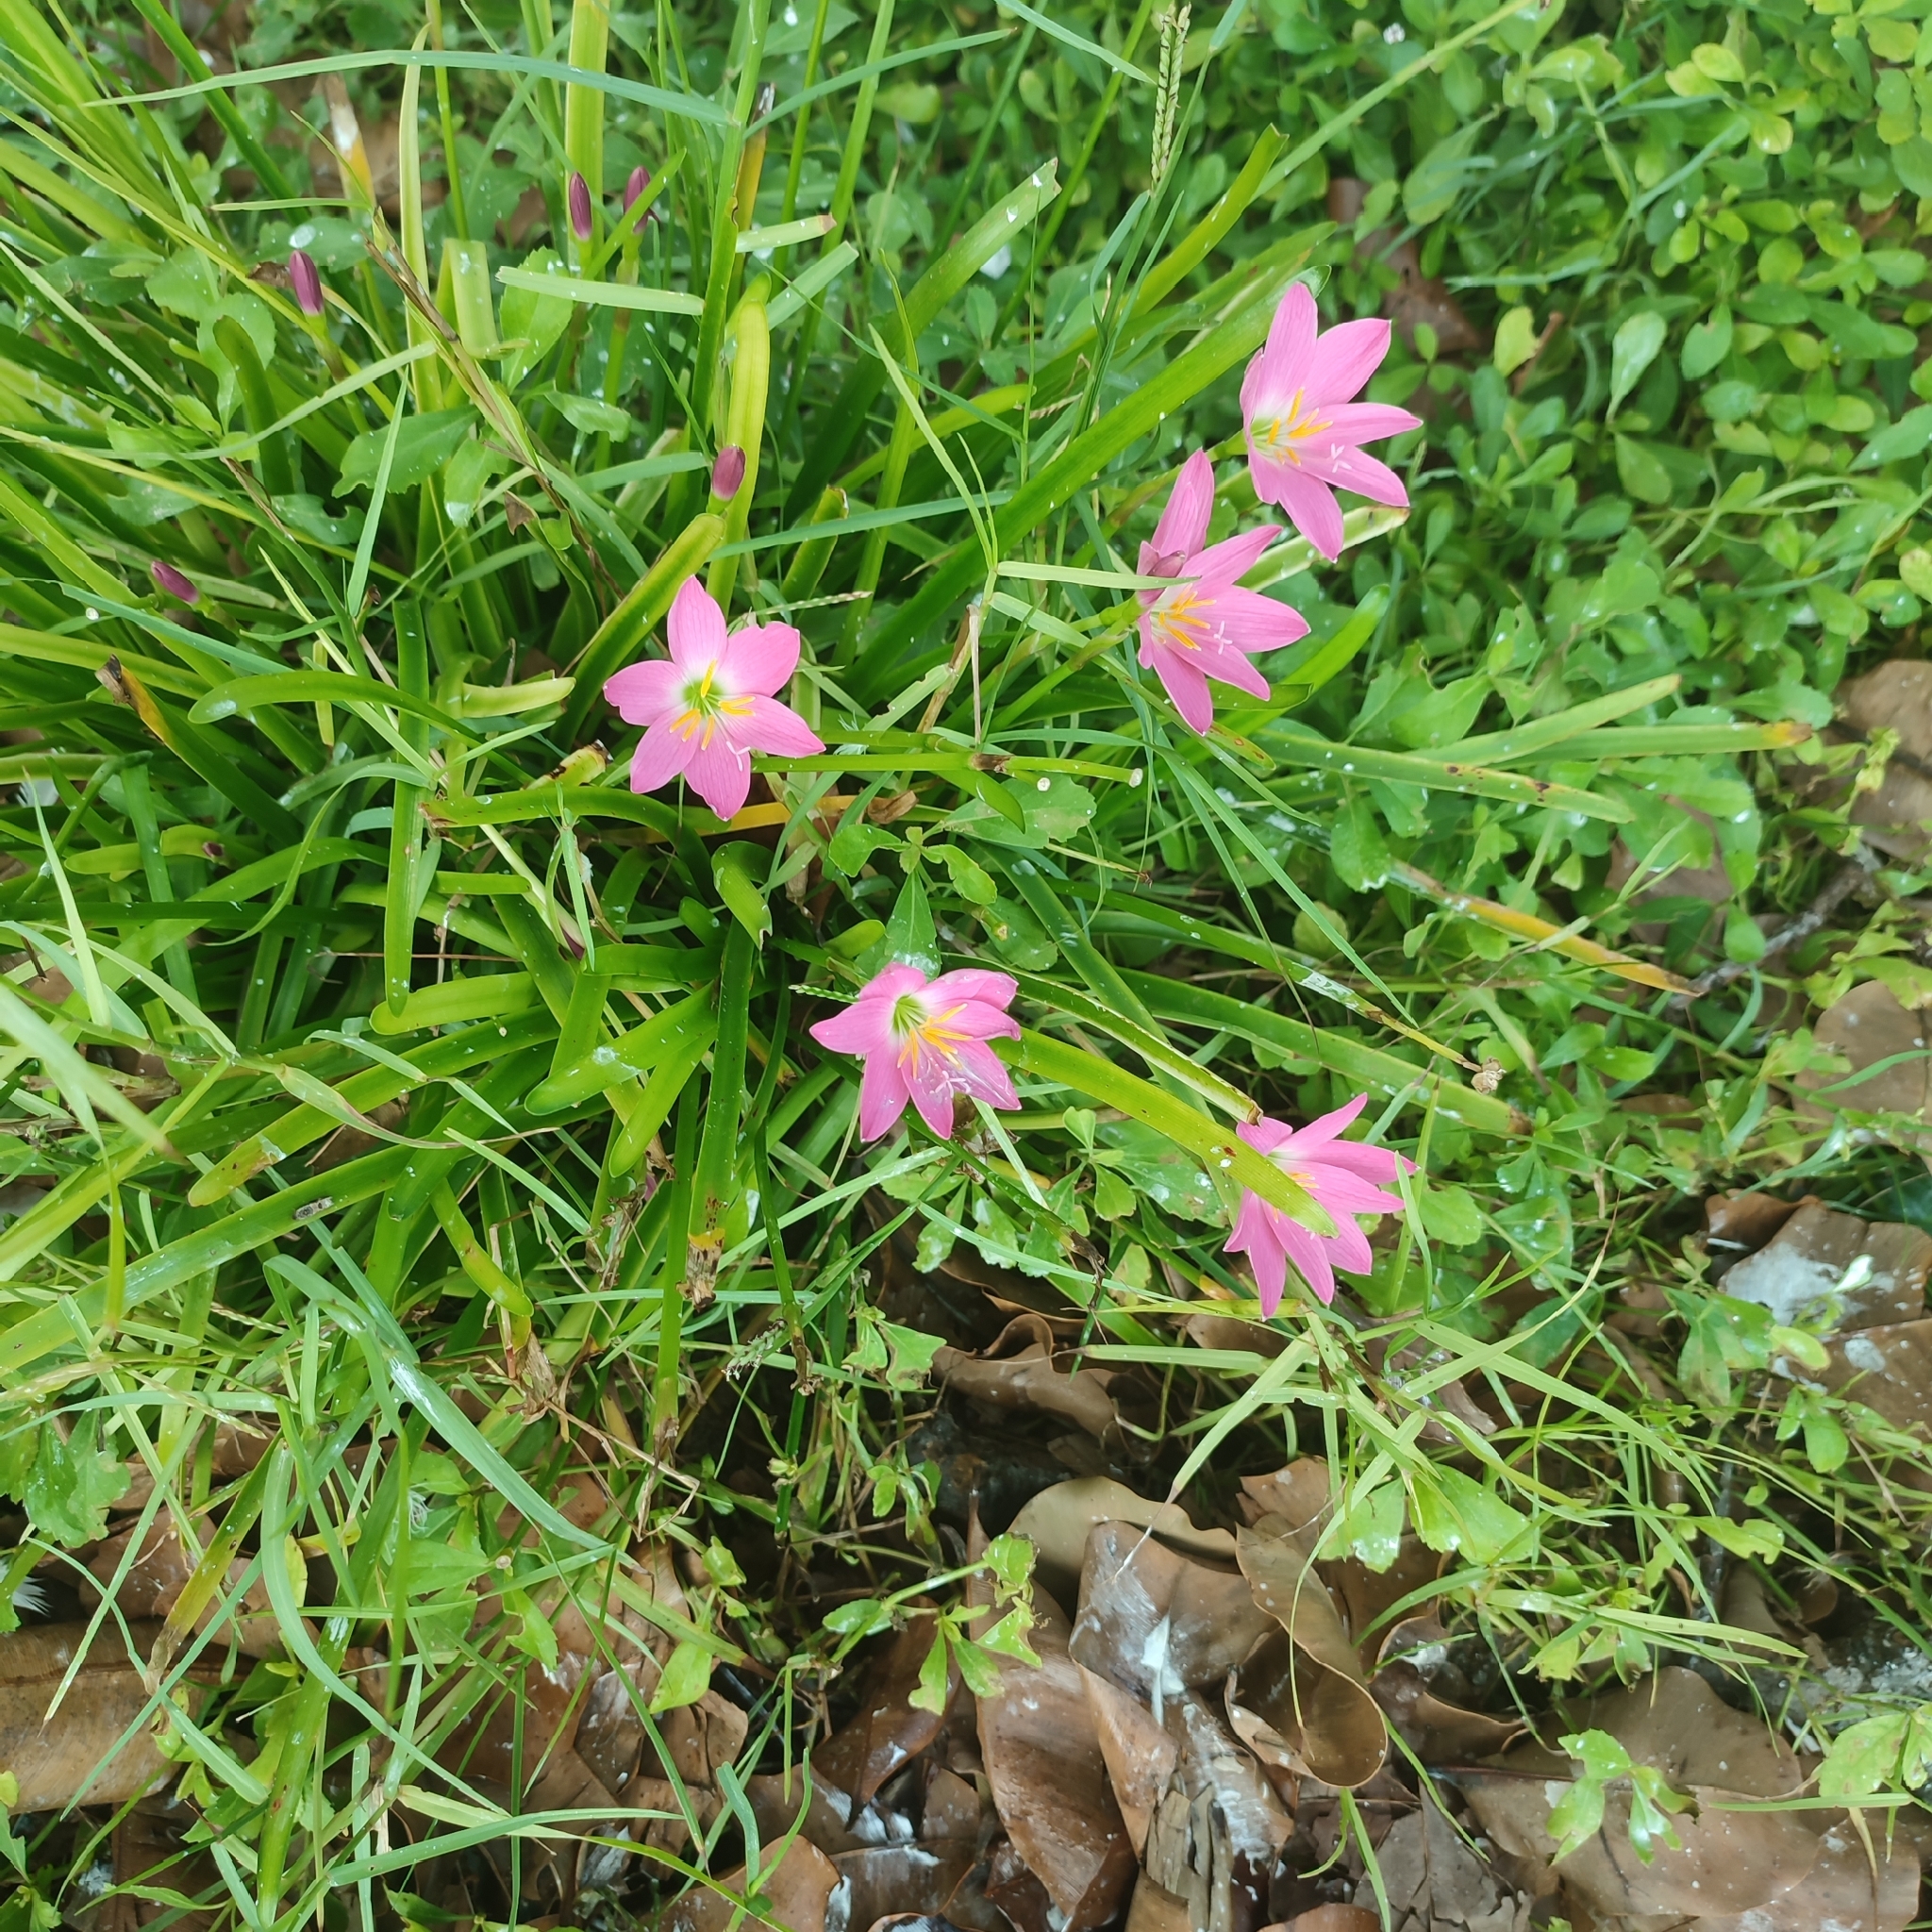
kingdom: Plantae
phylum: Tracheophyta
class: Liliopsida
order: Asparagales
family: Amaryllidaceae
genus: Zephyranthes
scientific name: Zephyranthes rosea
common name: Cuban zephyrlily
